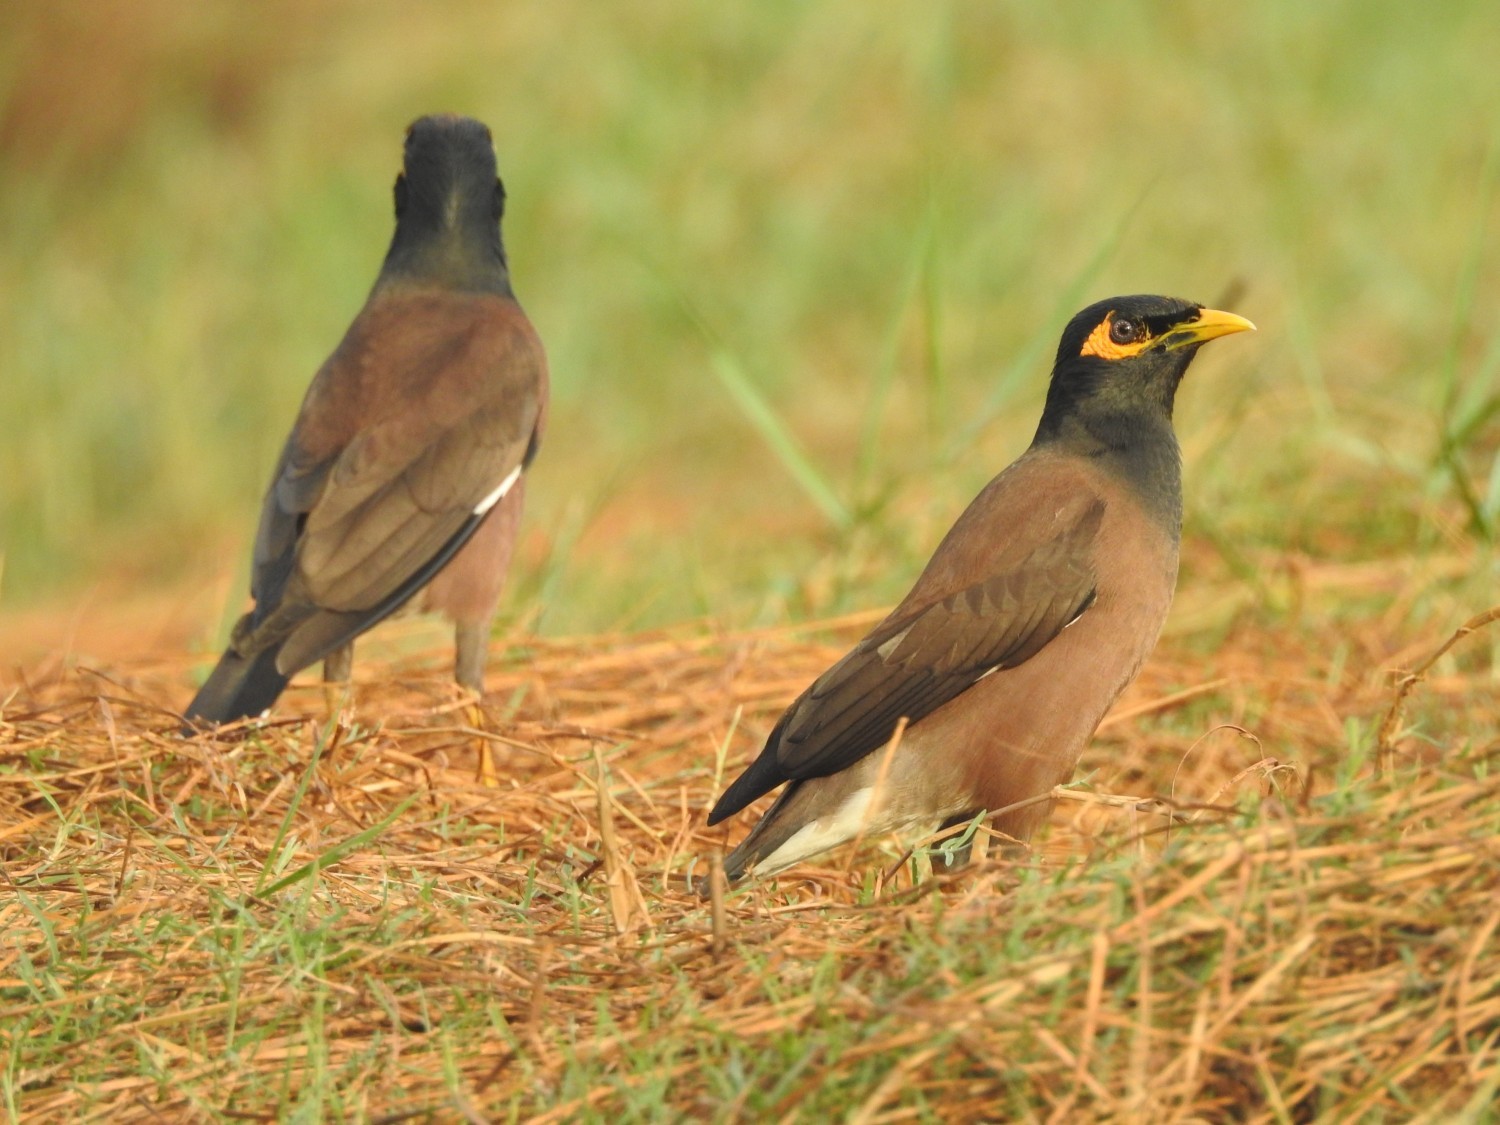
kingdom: Animalia
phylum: Chordata
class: Aves
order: Passeriformes
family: Sturnidae
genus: Acridotheres
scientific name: Acridotheres tristis
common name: Common myna
